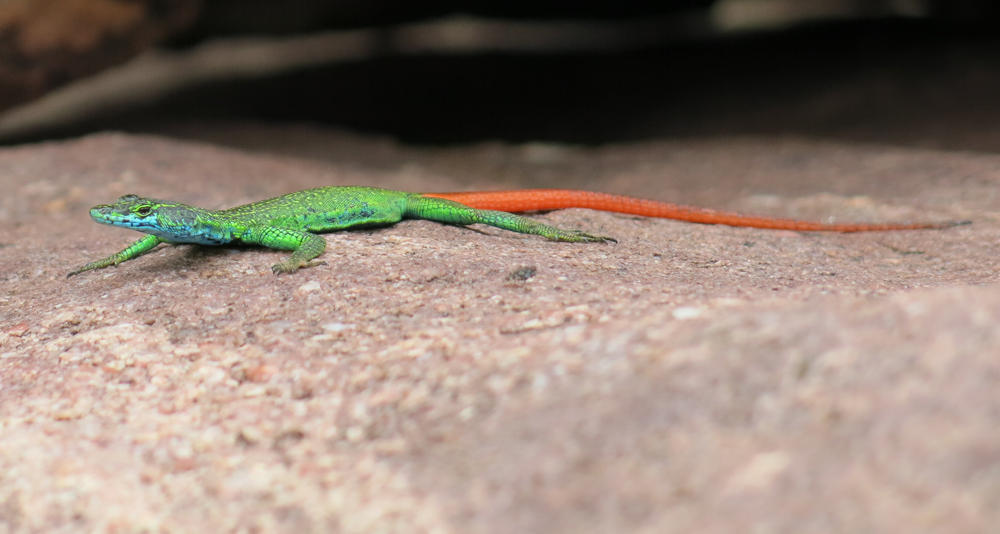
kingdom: Animalia
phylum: Chordata
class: Squamata
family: Cordylidae
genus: Platysaurus
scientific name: Platysaurus relictus
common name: Soutpansberg flat lizard
